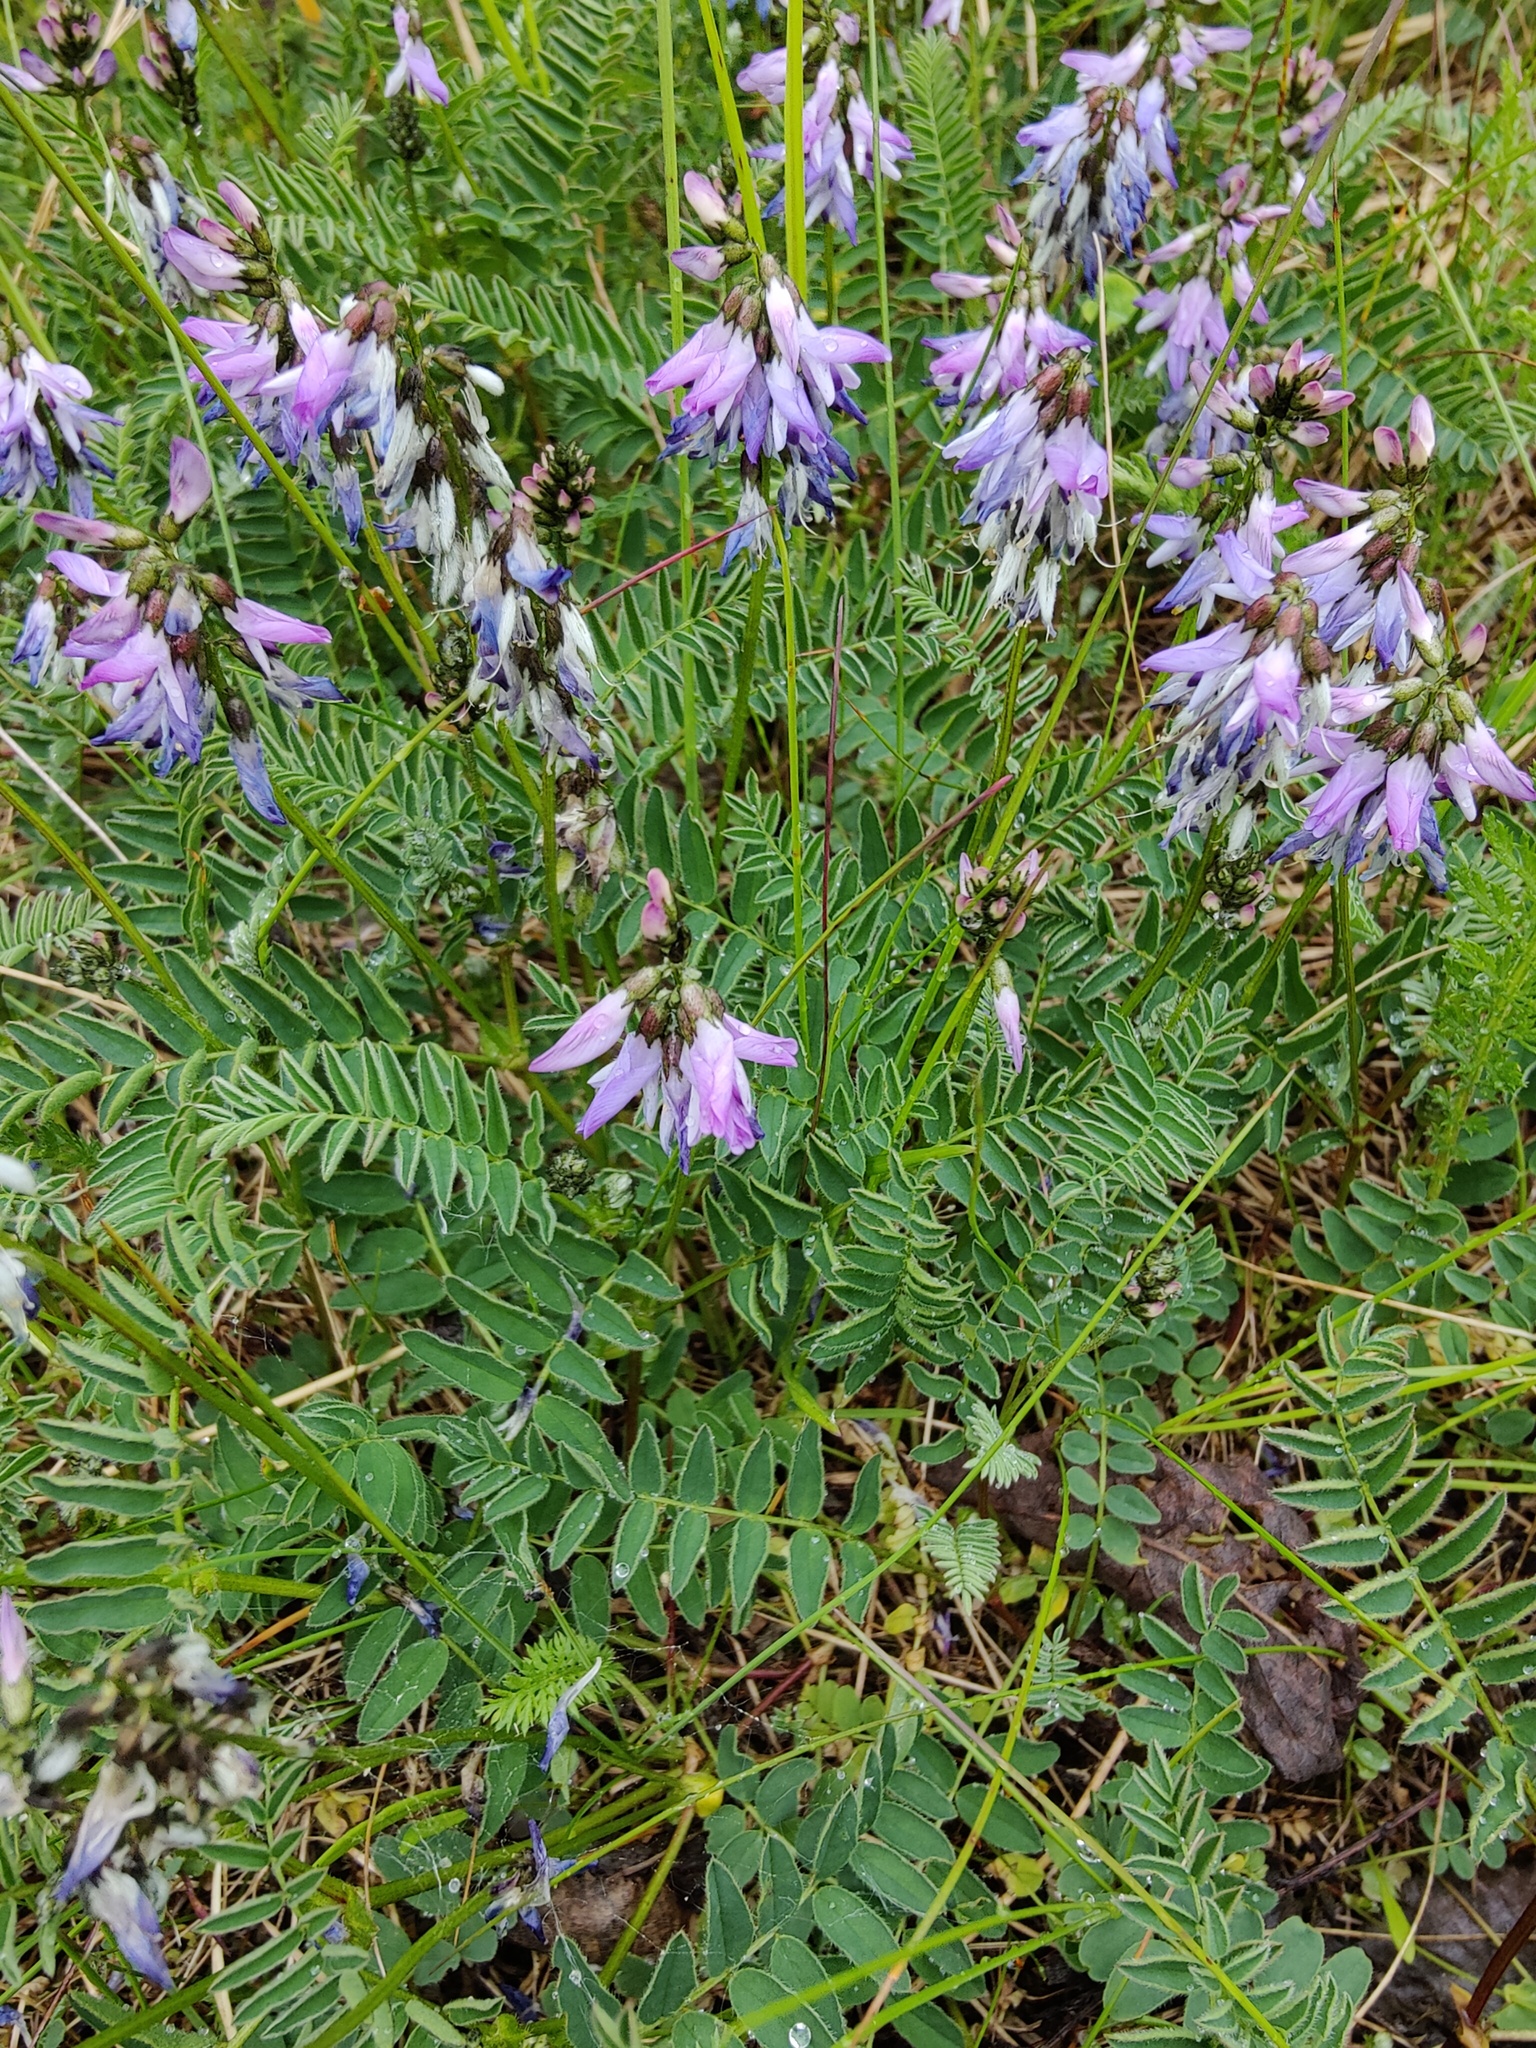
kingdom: Plantae
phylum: Tracheophyta
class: Magnoliopsida
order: Fabales
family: Fabaceae
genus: Astragalus
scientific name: Astragalus alpinus
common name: Alpine milk-vetch
